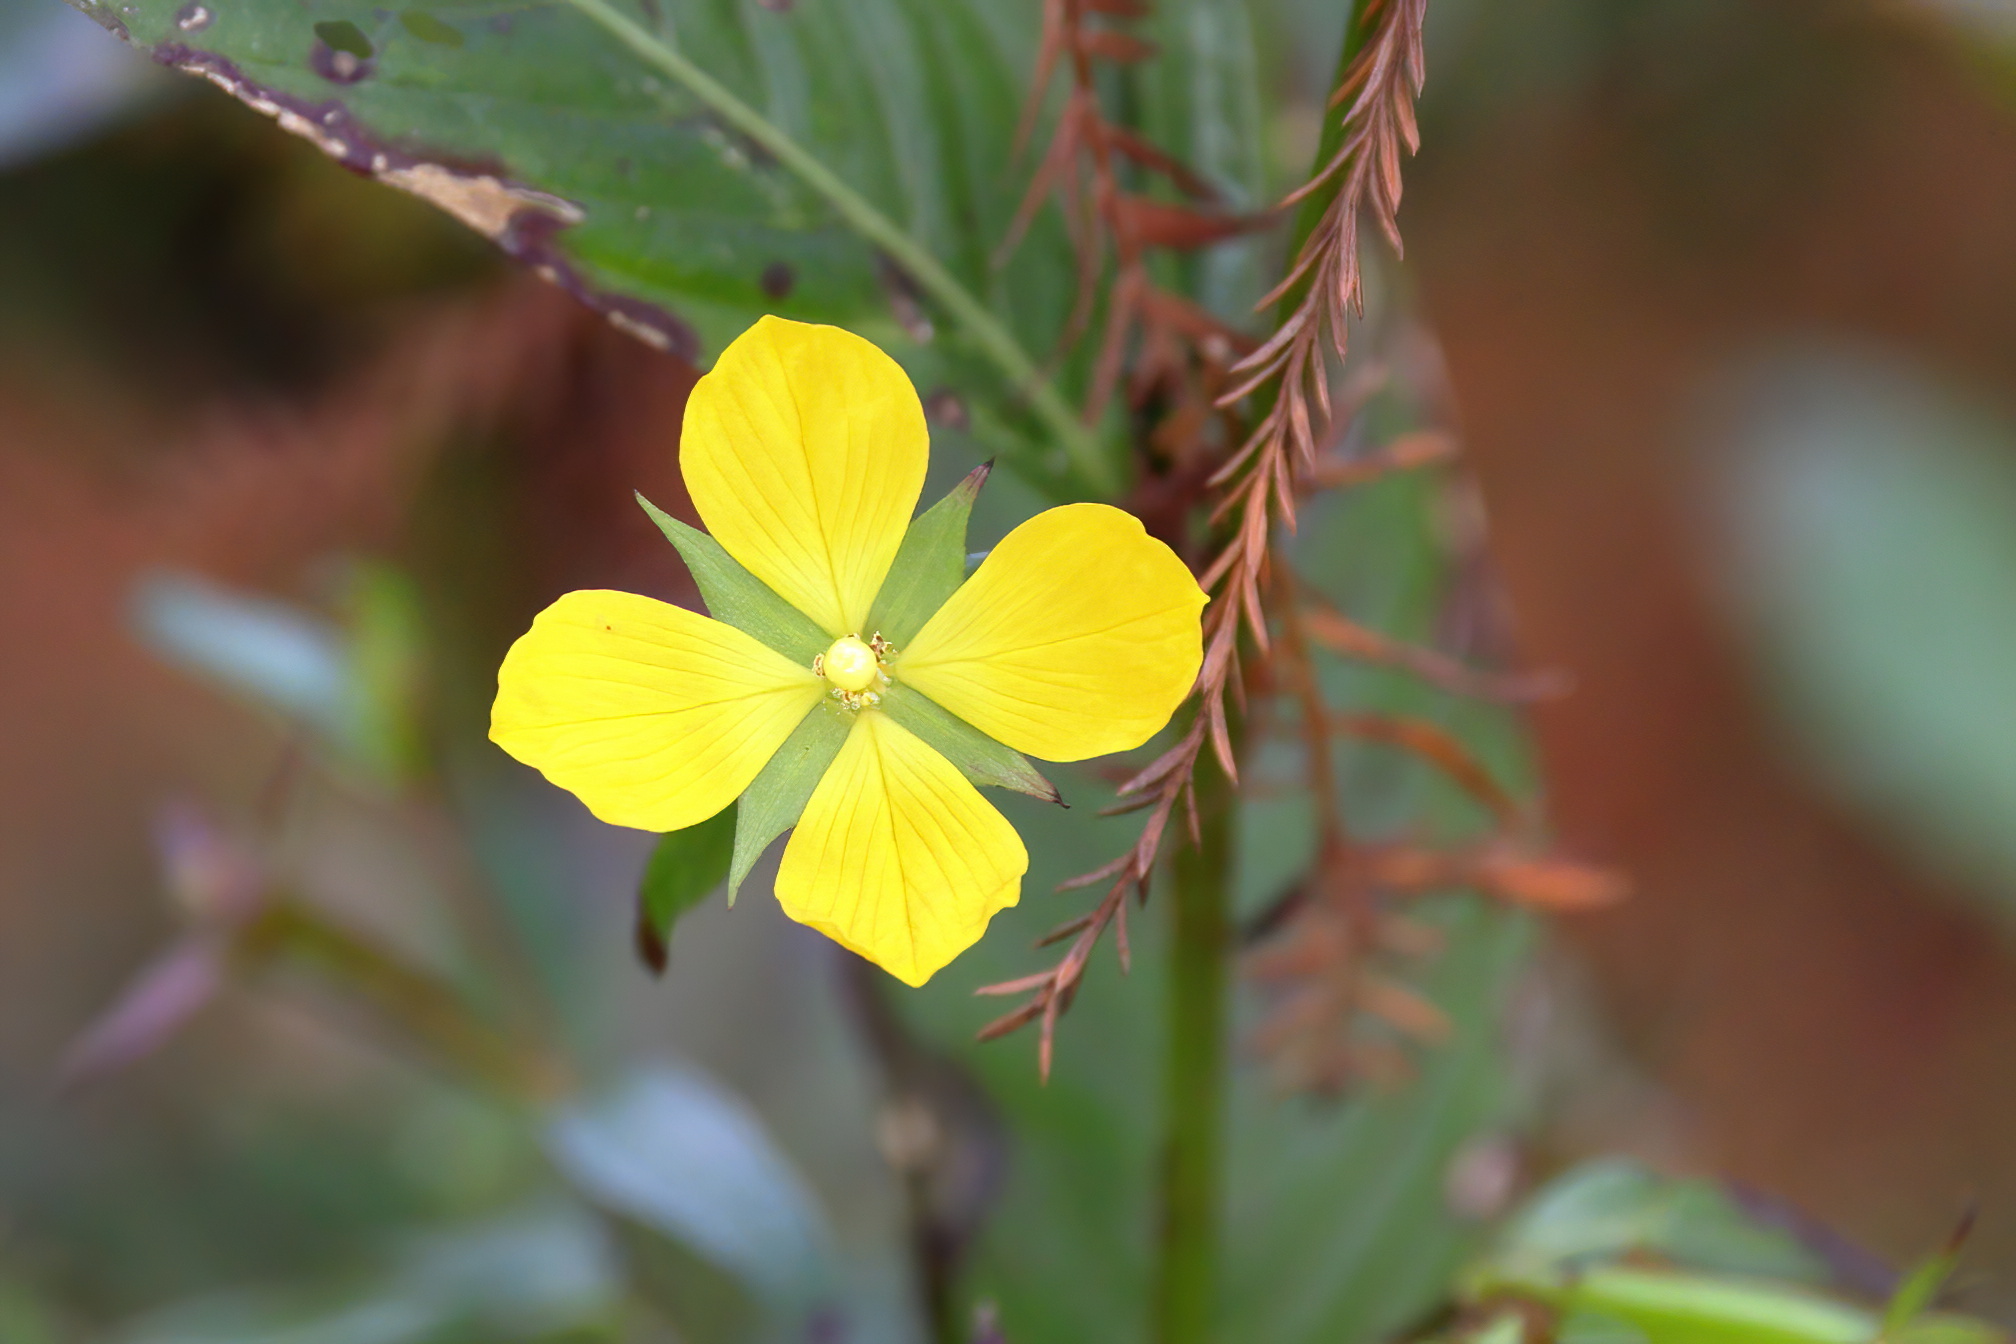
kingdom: Plantae
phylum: Tracheophyta
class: Magnoliopsida
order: Myrtales
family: Onagraceae
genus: Ludwigia
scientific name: Ludwigia decurrens
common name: Winged water-primrose
